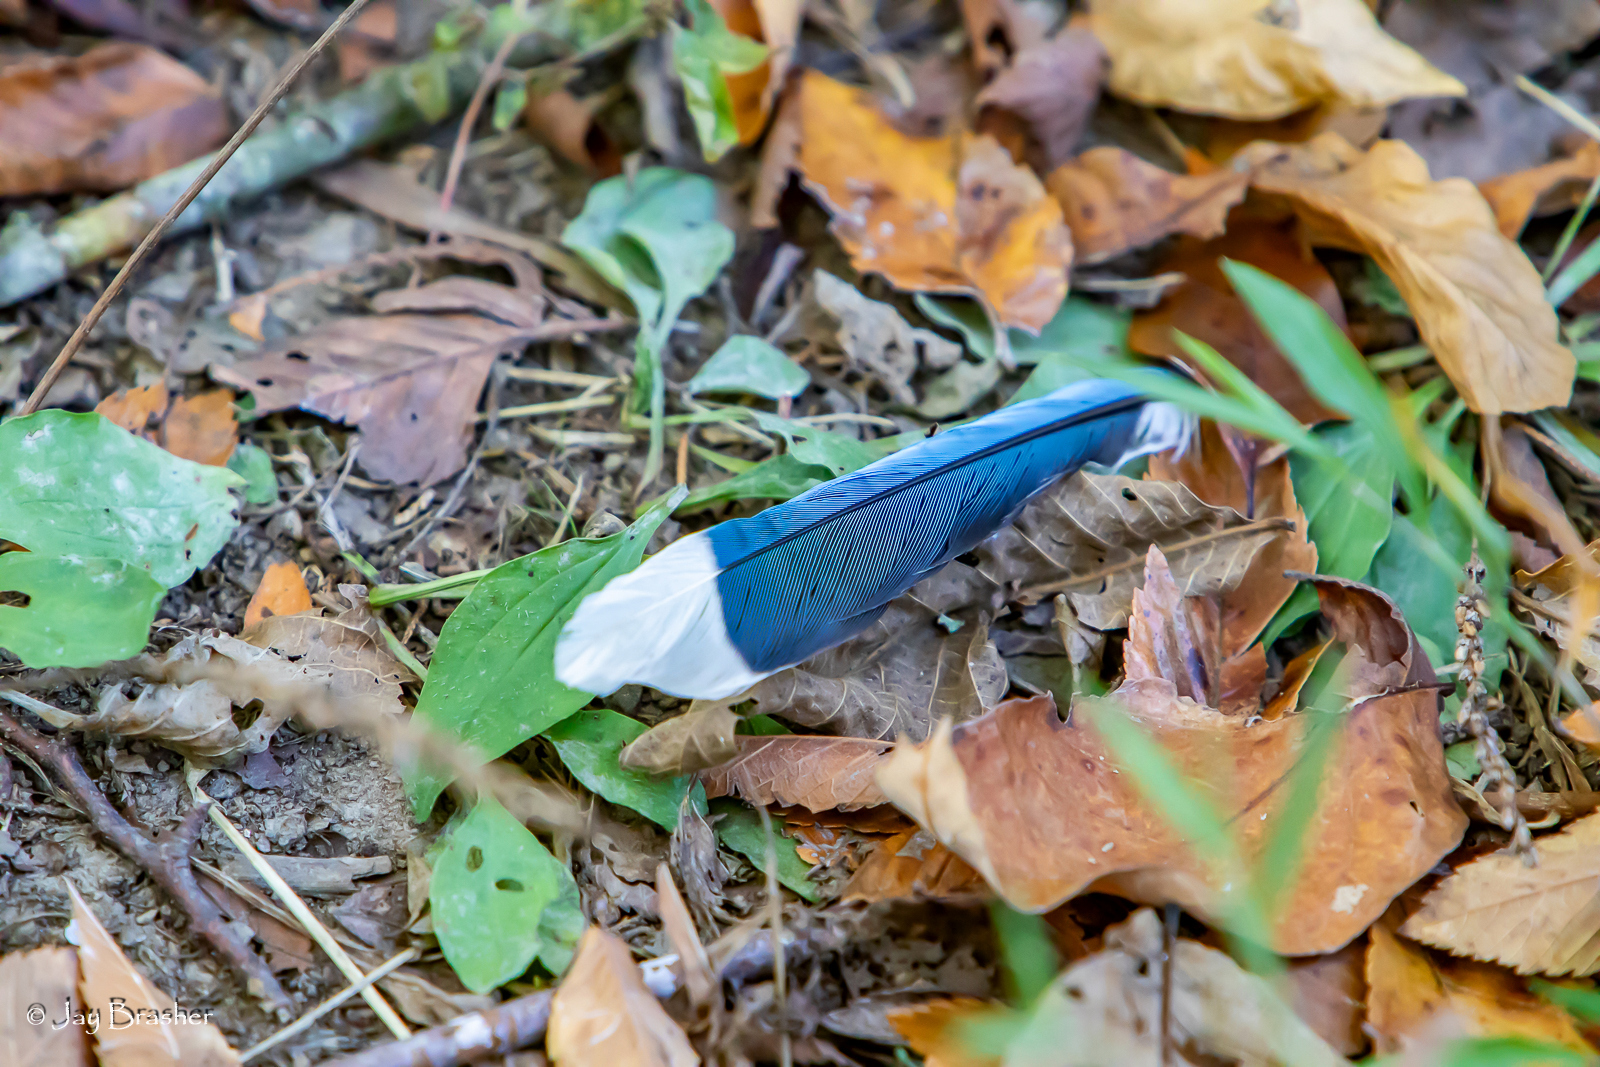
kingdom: Animalia
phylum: Chordata
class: Aves
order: Passeriformes
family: Corvidae
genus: Cyanocitta
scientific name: Cyanocitta cristata
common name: Blue jay
